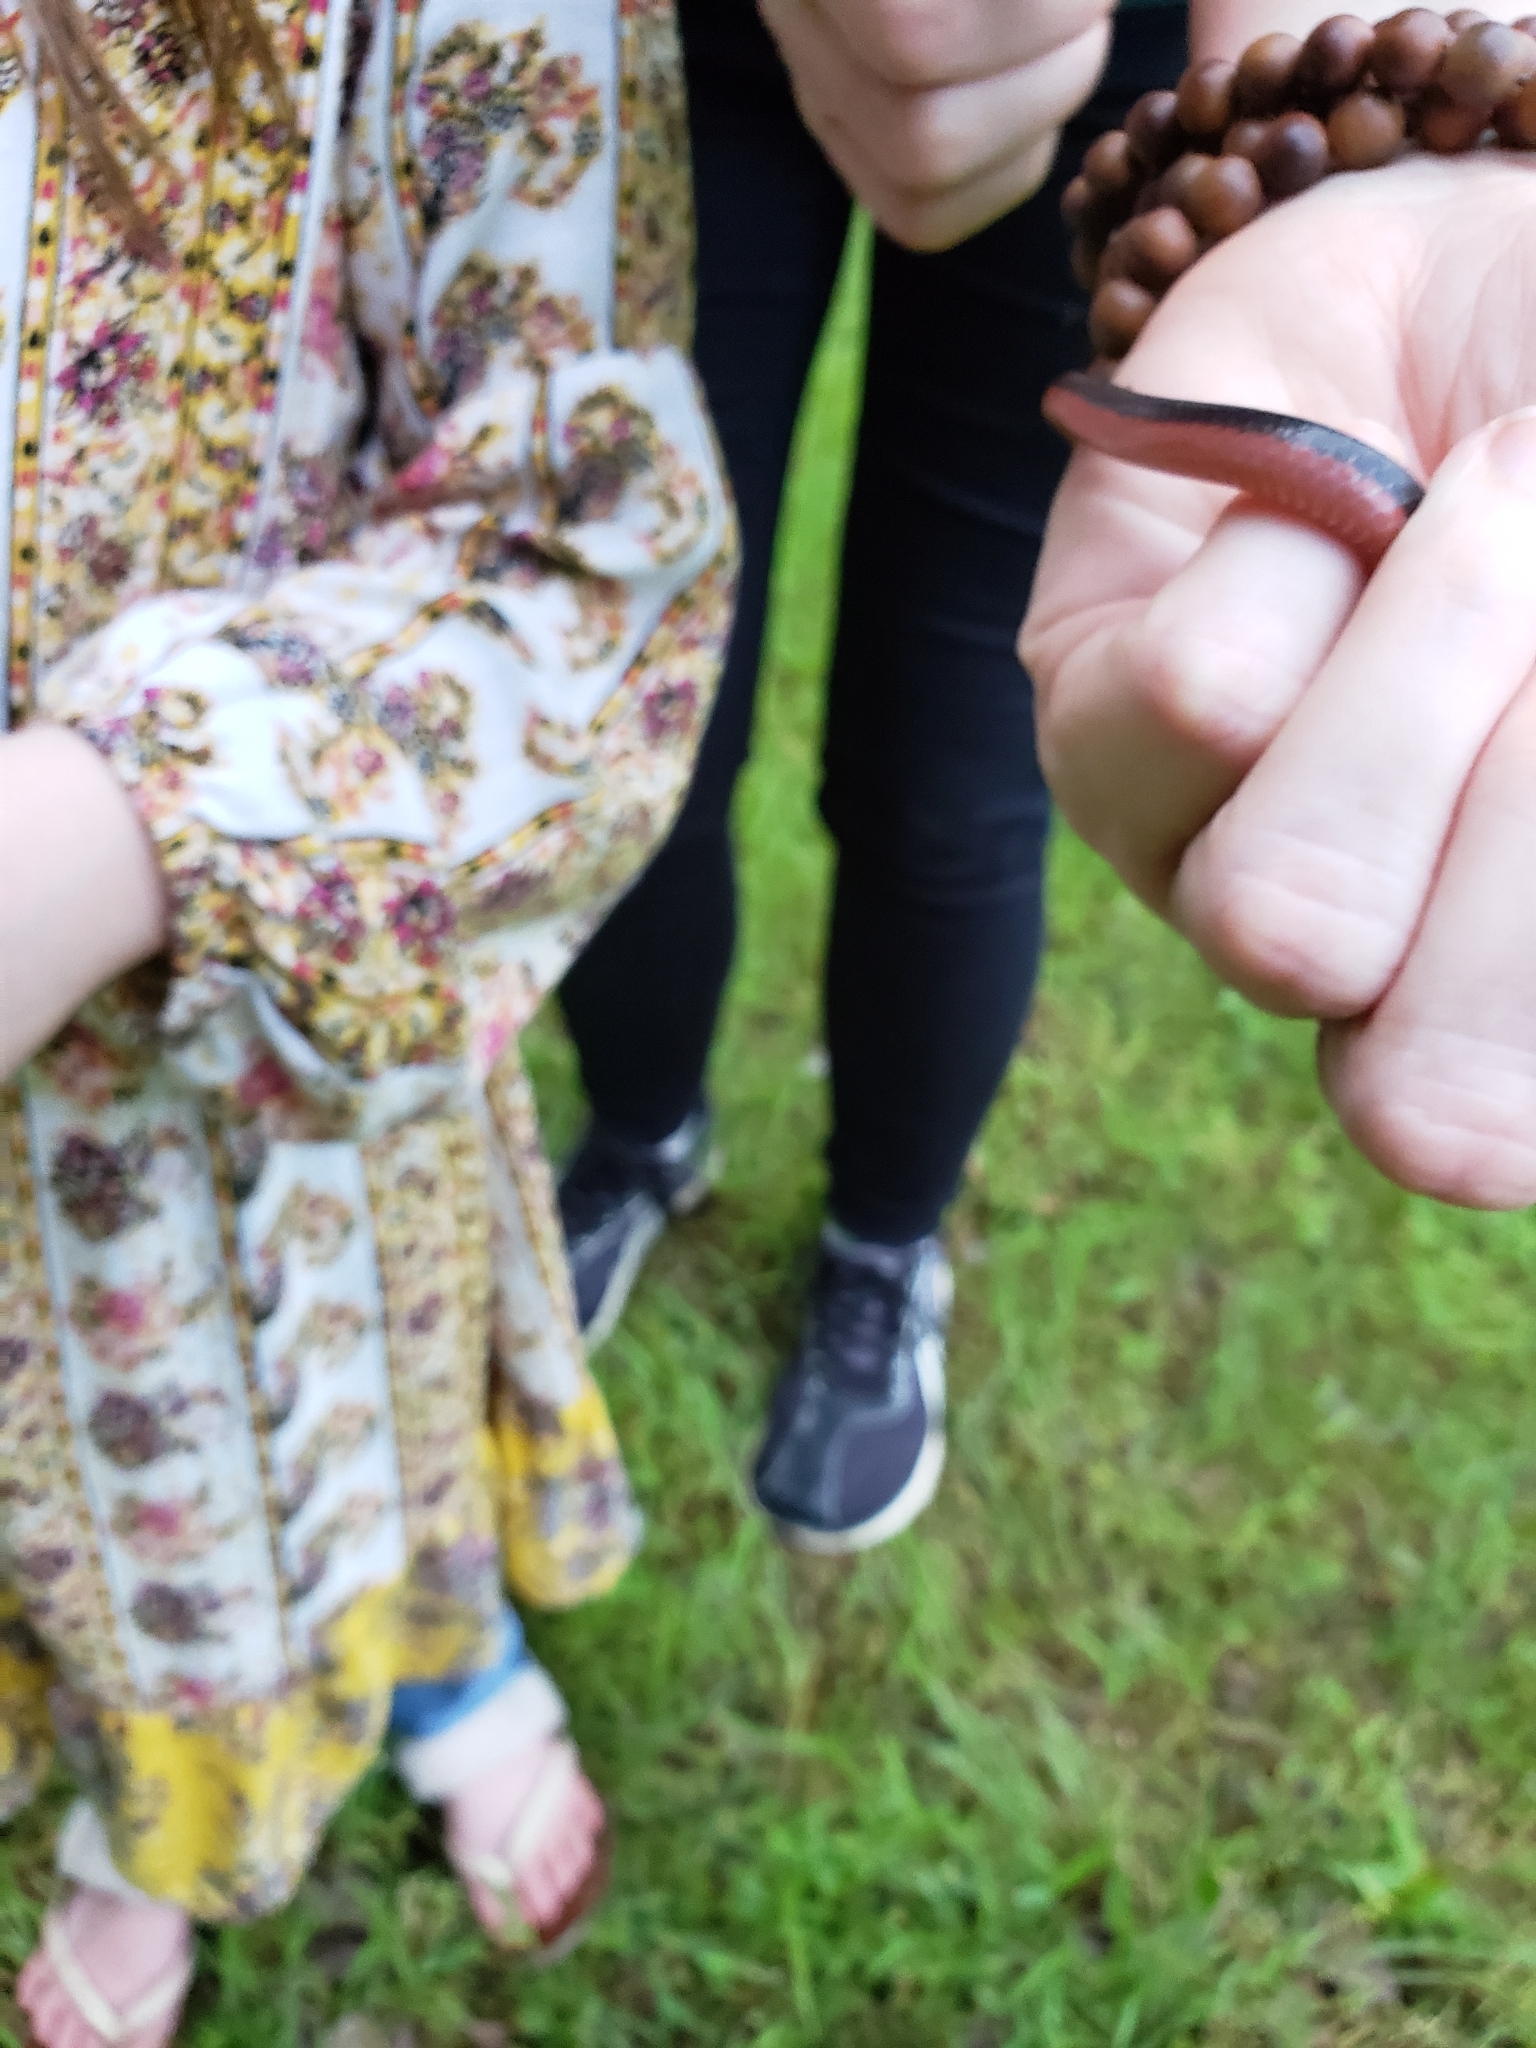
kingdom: Animalia
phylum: Chordata
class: Squamata
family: Colubridae
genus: Carphophis
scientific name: Carphophis vermis
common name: Western worm snake
